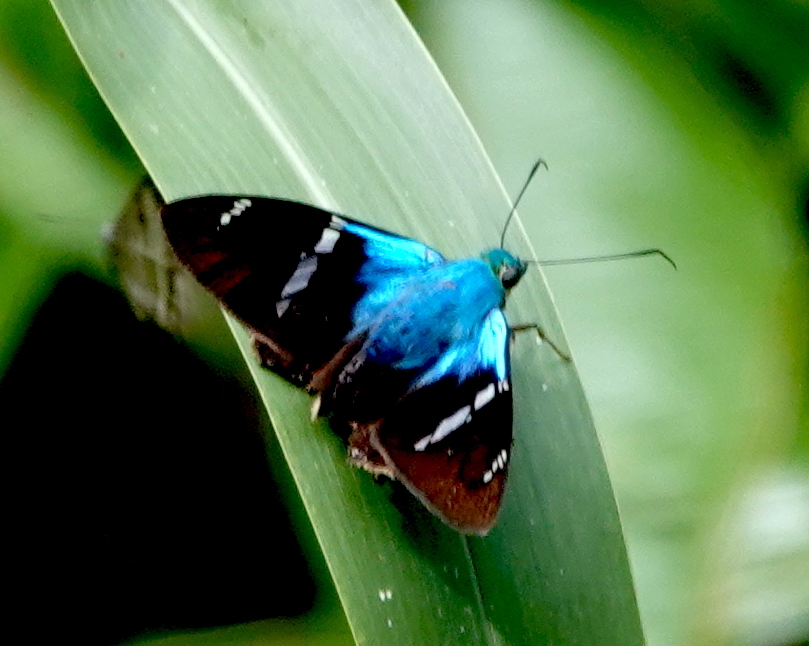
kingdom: Animalia
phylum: Arthropoda
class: Insecta
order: Lepidoptera
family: Hesperiidae
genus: Astraptes
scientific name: Astraptes fulgerator
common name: Two-barred flasher
